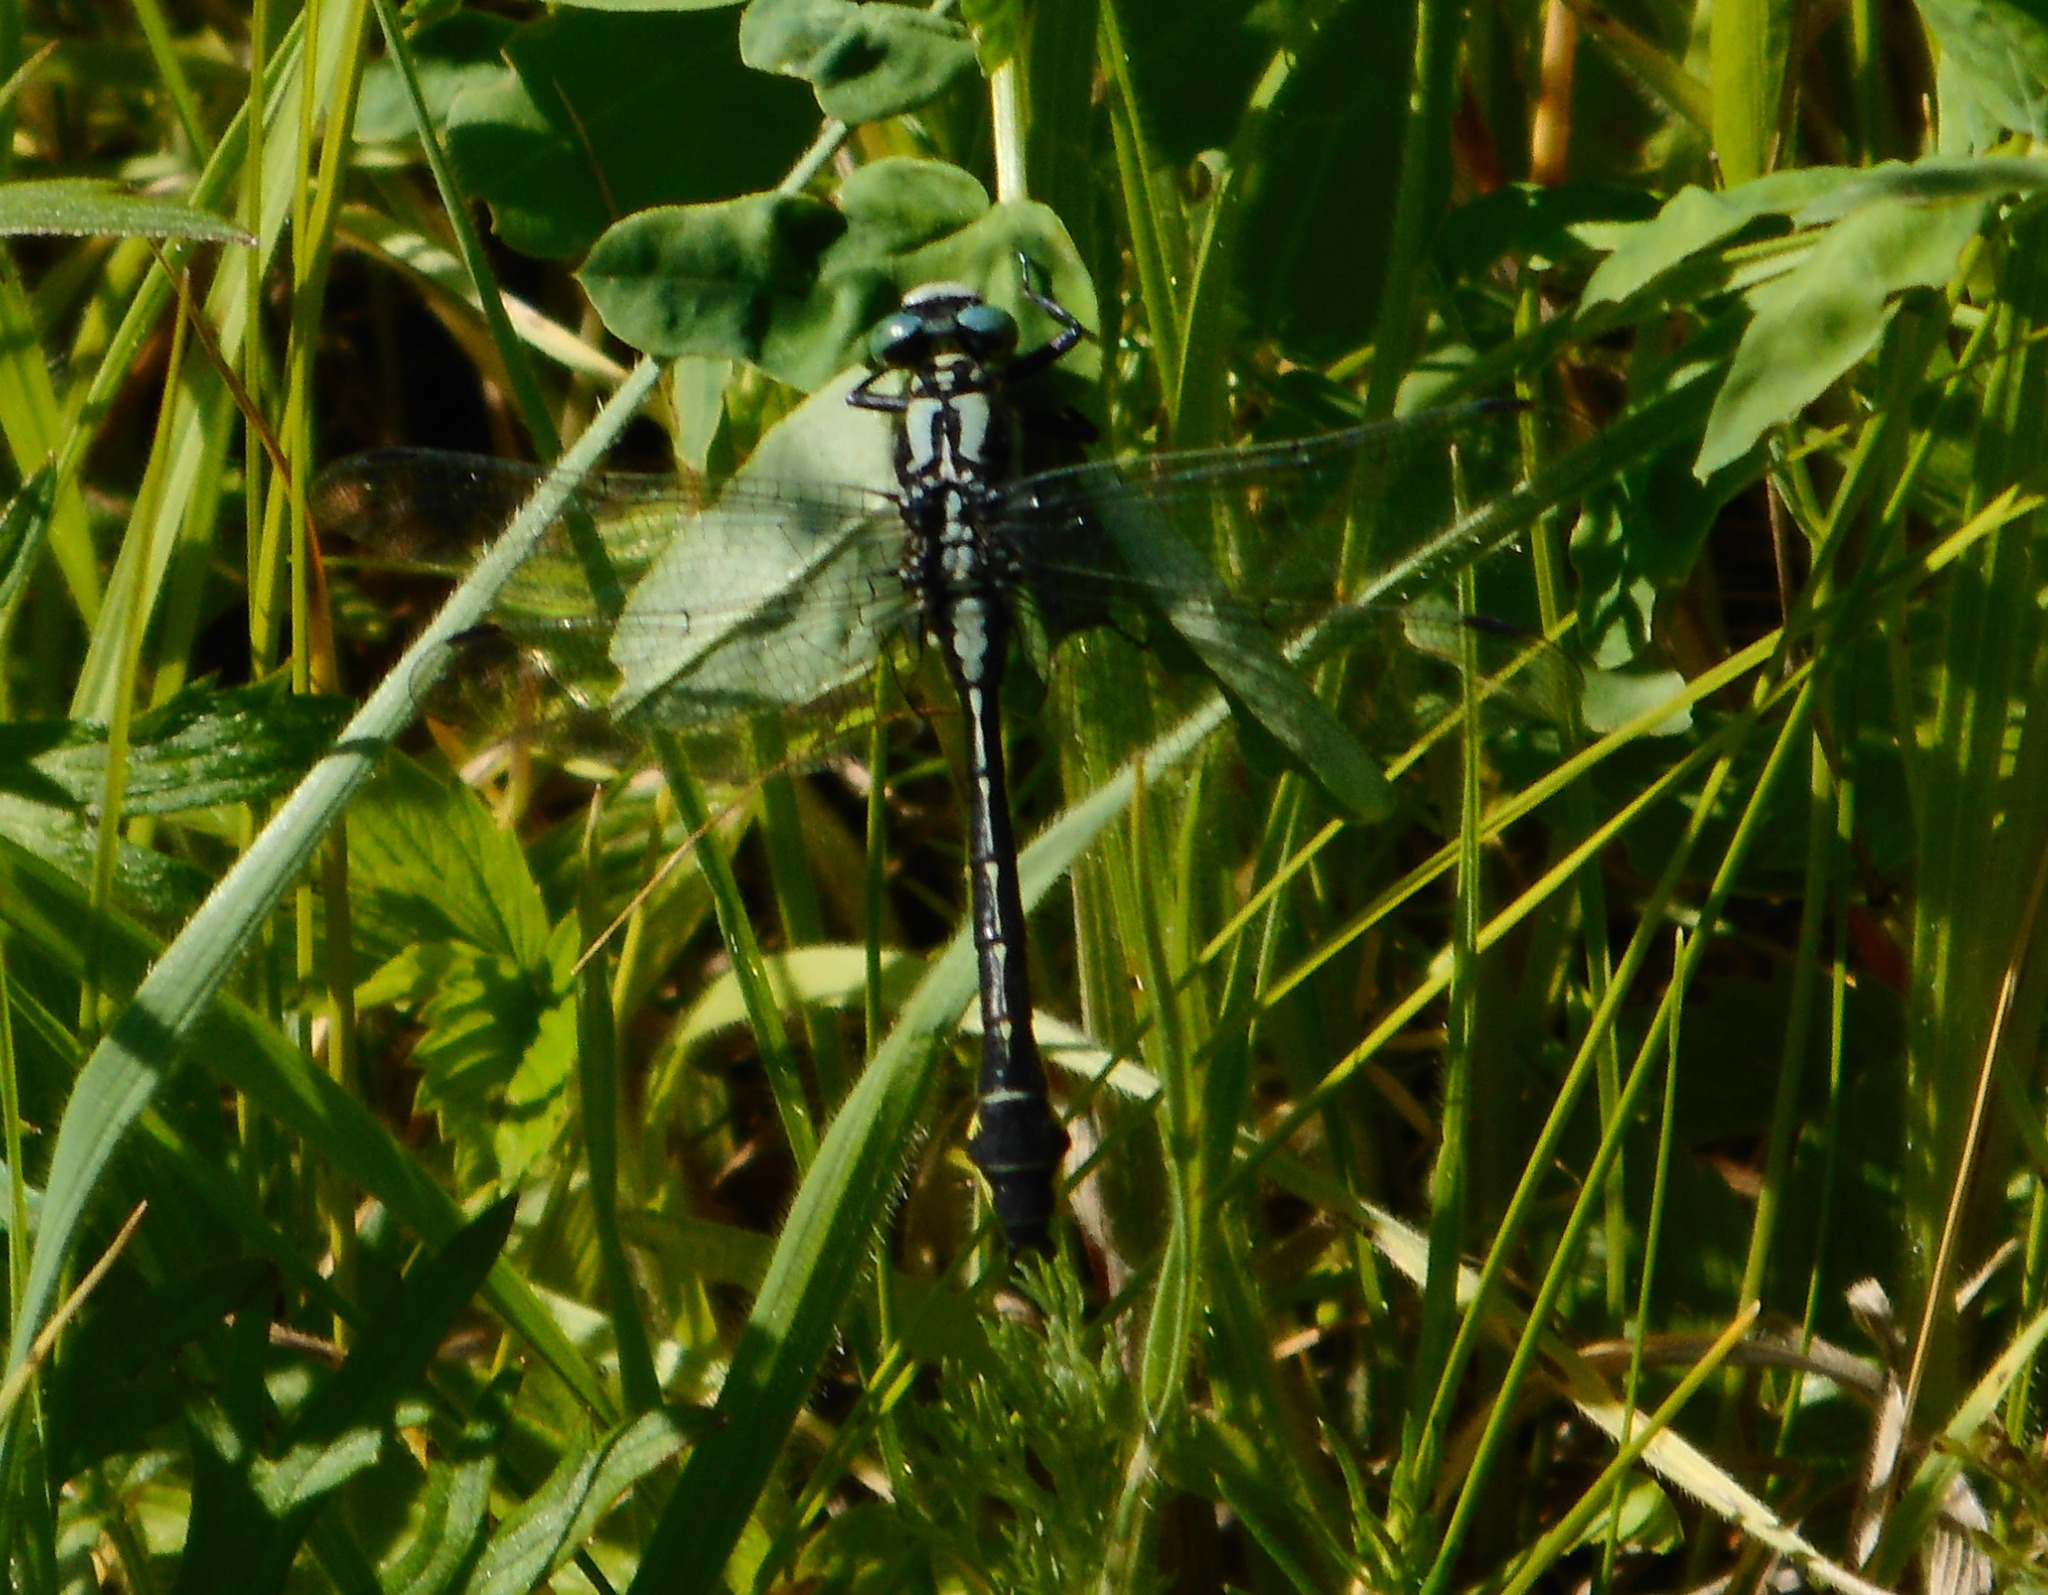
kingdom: Animalia
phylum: Arthropoda
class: Insecta
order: Odonata
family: Gomphidae
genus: Gomphus
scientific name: Gomphus vulgatissimus
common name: Club-tailed dragonfly
